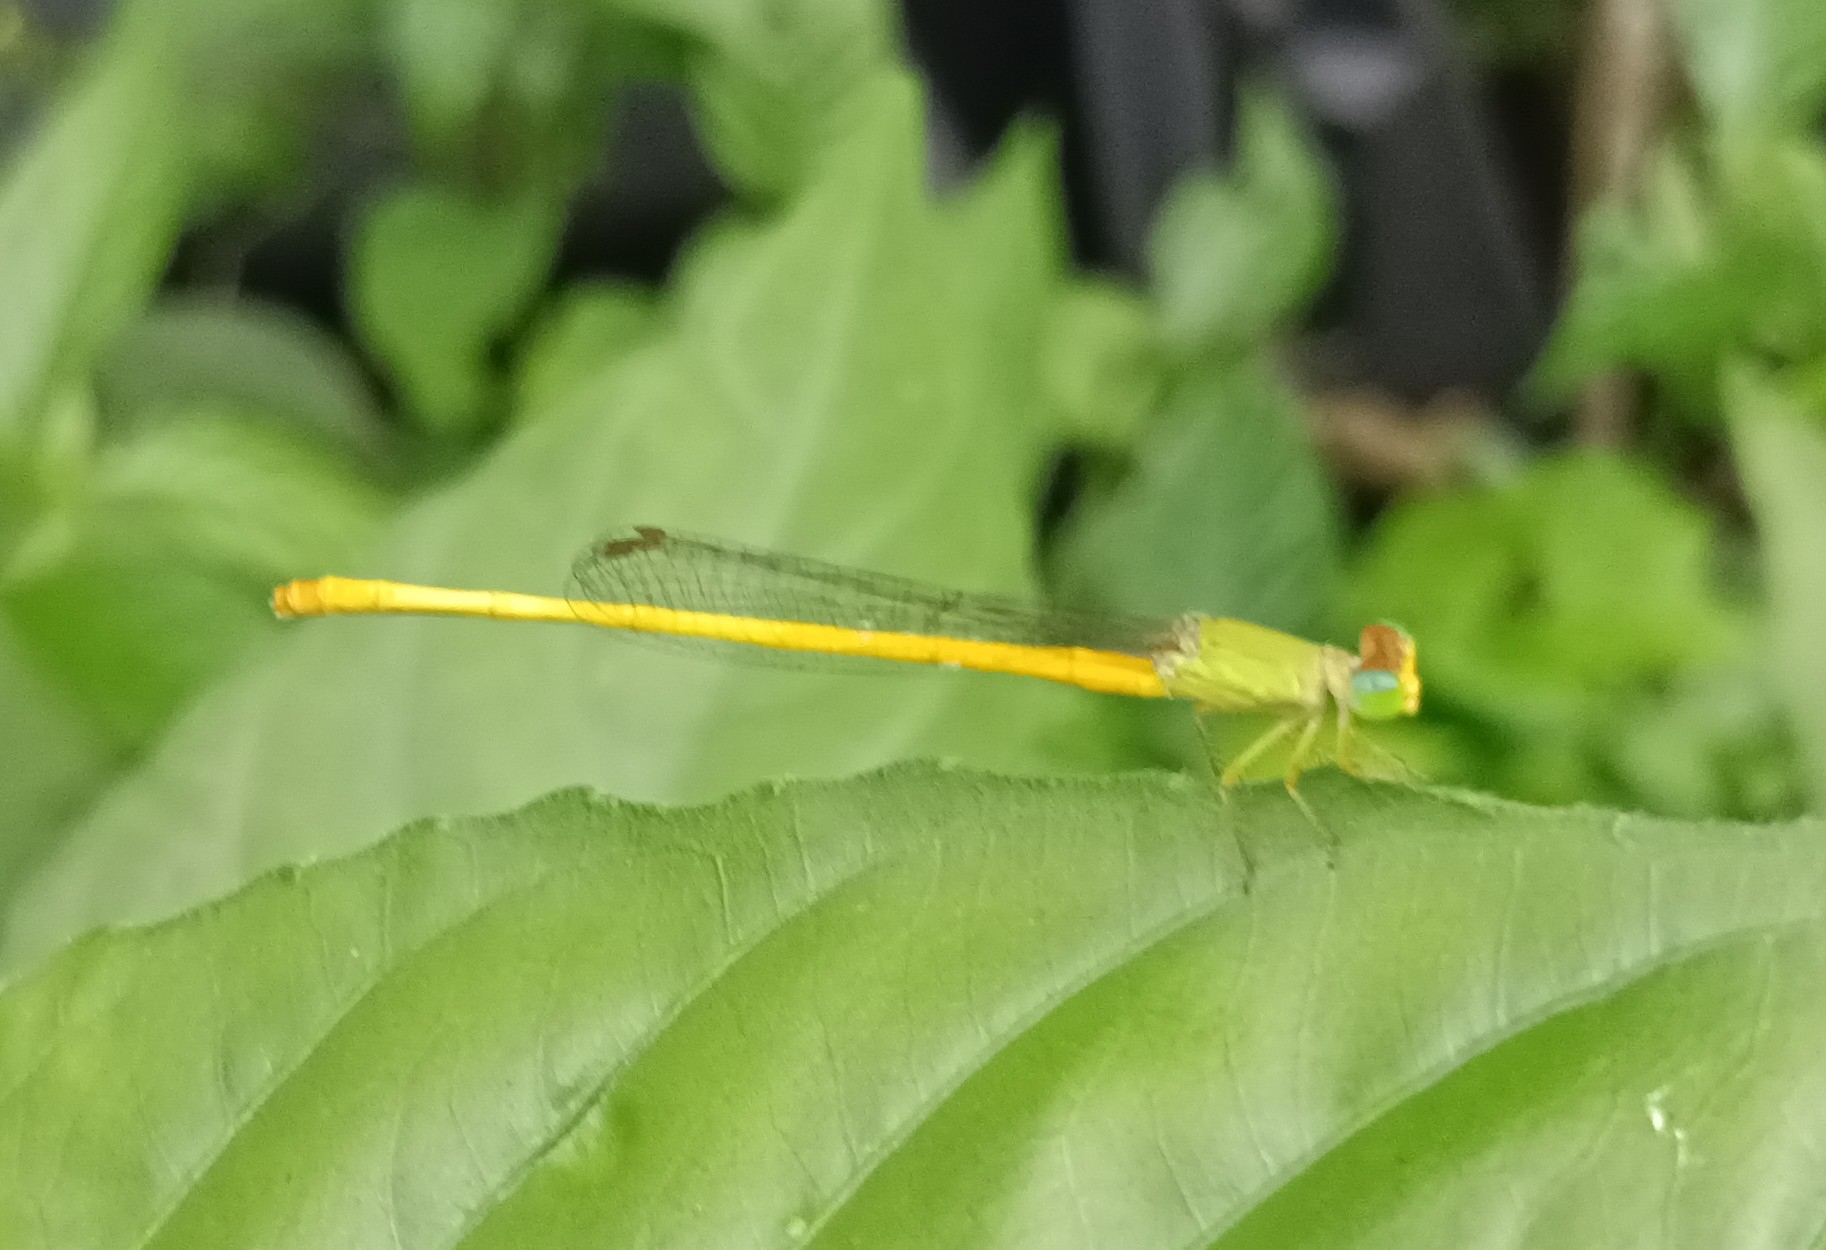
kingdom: Animalia
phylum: Arthropoda
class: Insecta
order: Odonata
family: Coenagrionidae
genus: Ceriagrion
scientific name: Ceriagrion coromandelianum
